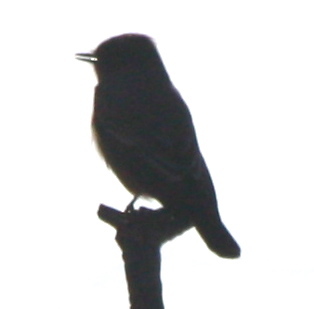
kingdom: Animalia
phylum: Chordata
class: Aves
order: Passeriformes
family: Tyrannidae
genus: Sayornis
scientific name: Sayornis saya
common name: Say's phoebe
